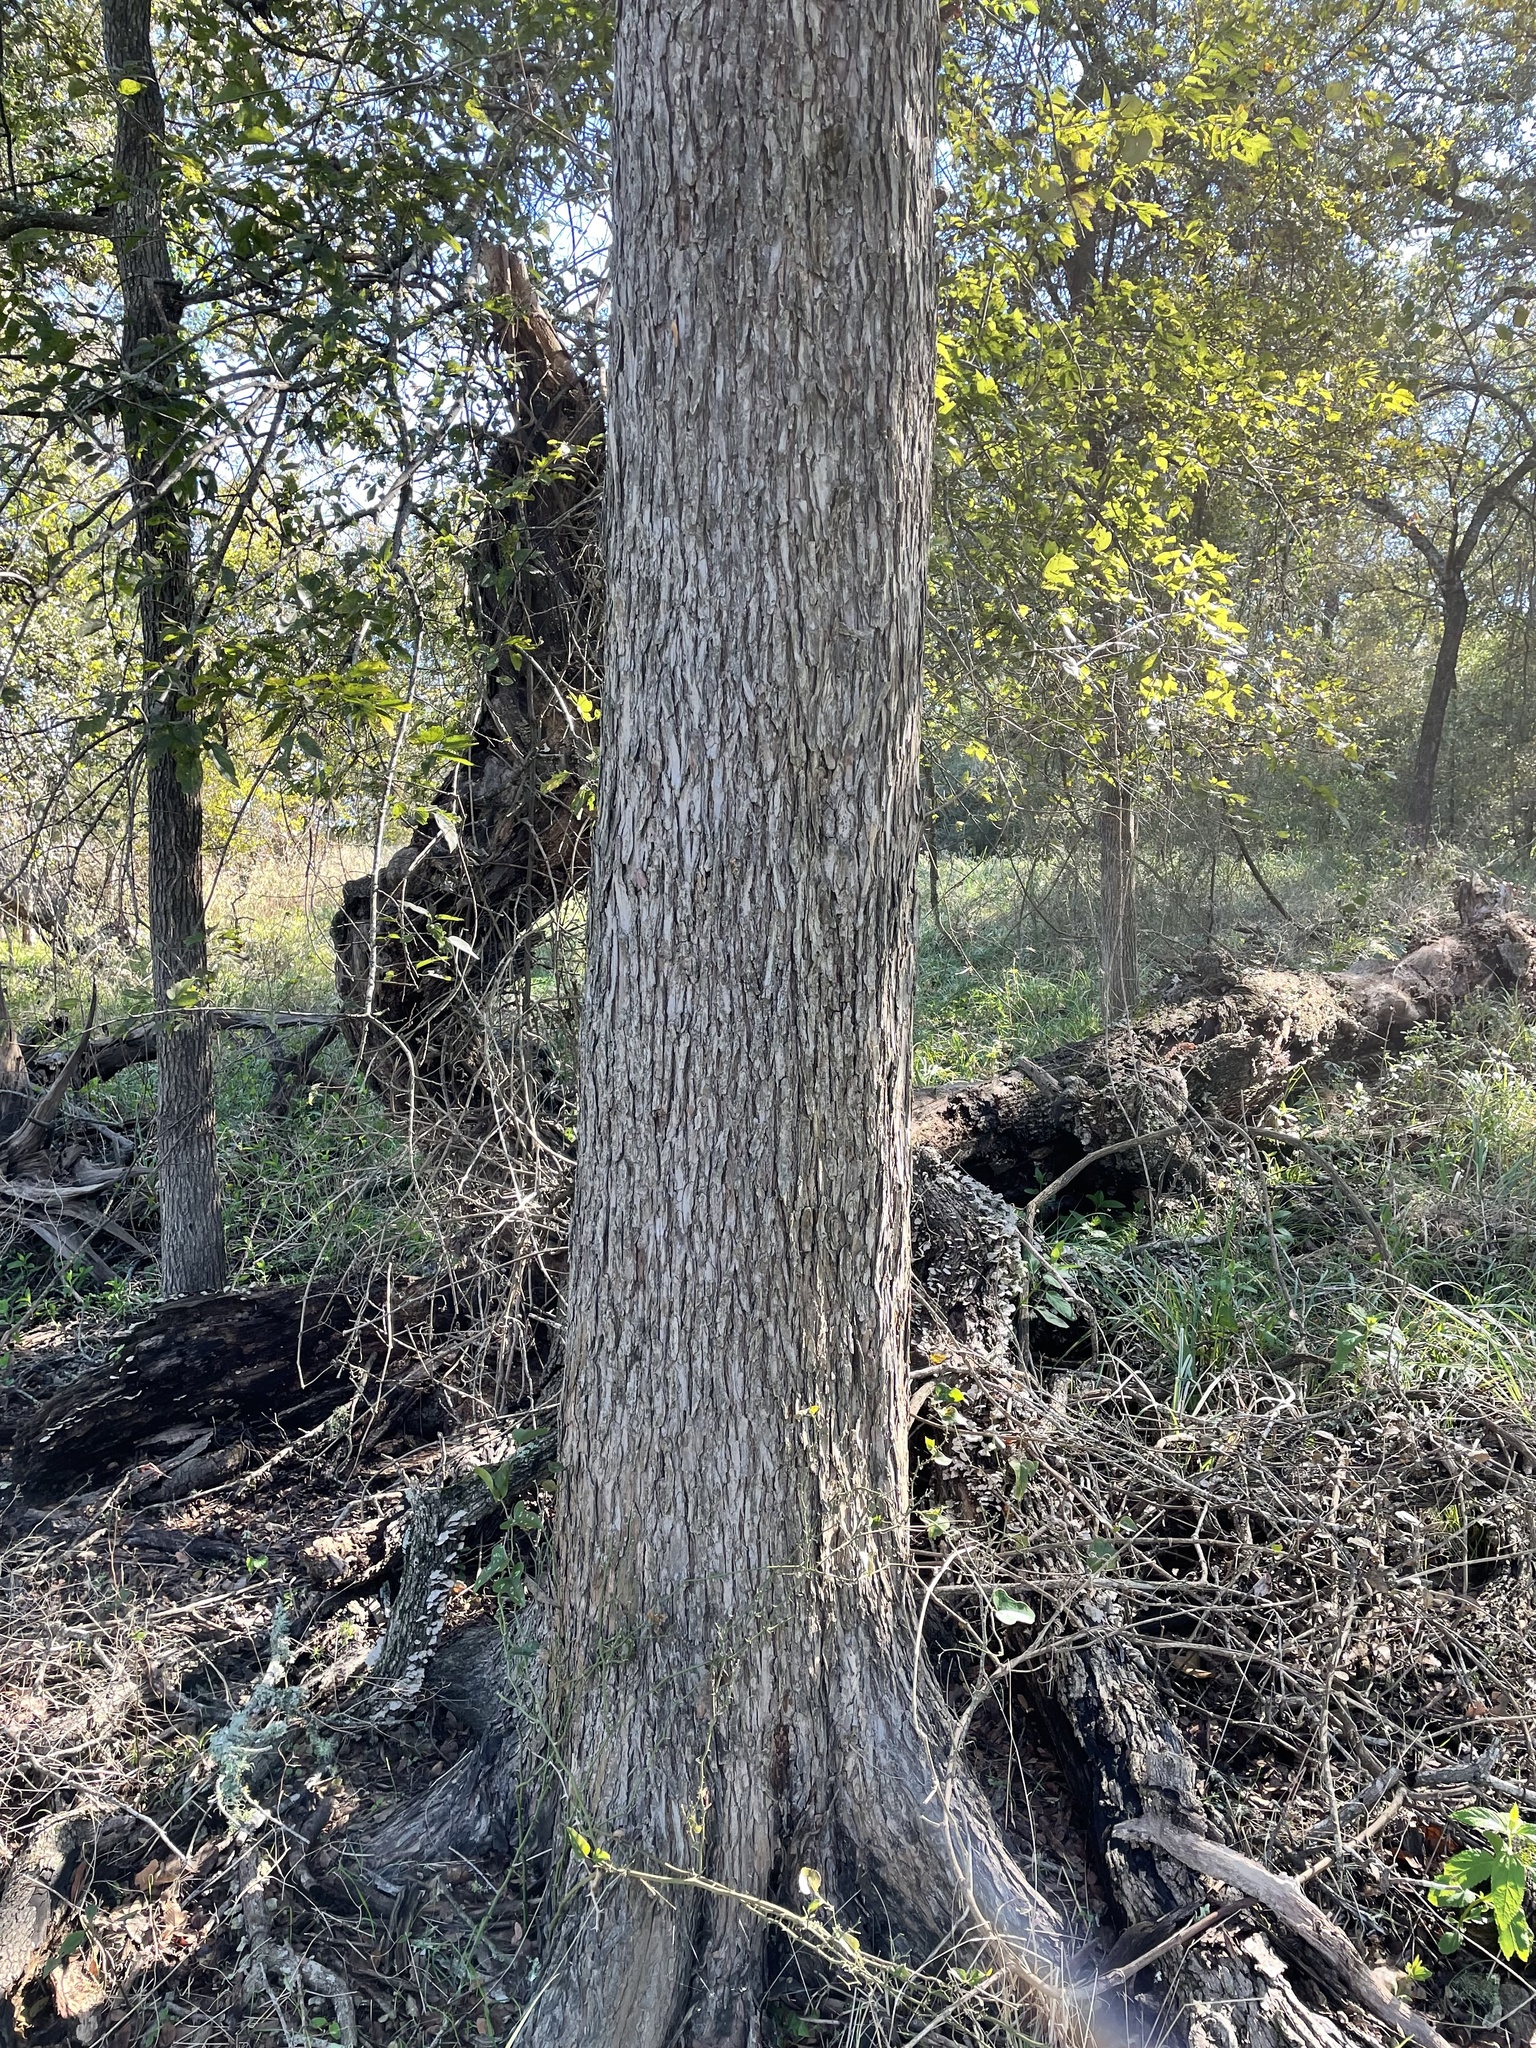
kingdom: Plantae
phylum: Tracheophyta
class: Magnoliopsida
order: Rosales
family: Ulmaceae
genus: Ulmus
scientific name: Ulmus crassifolia
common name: Basket elm
